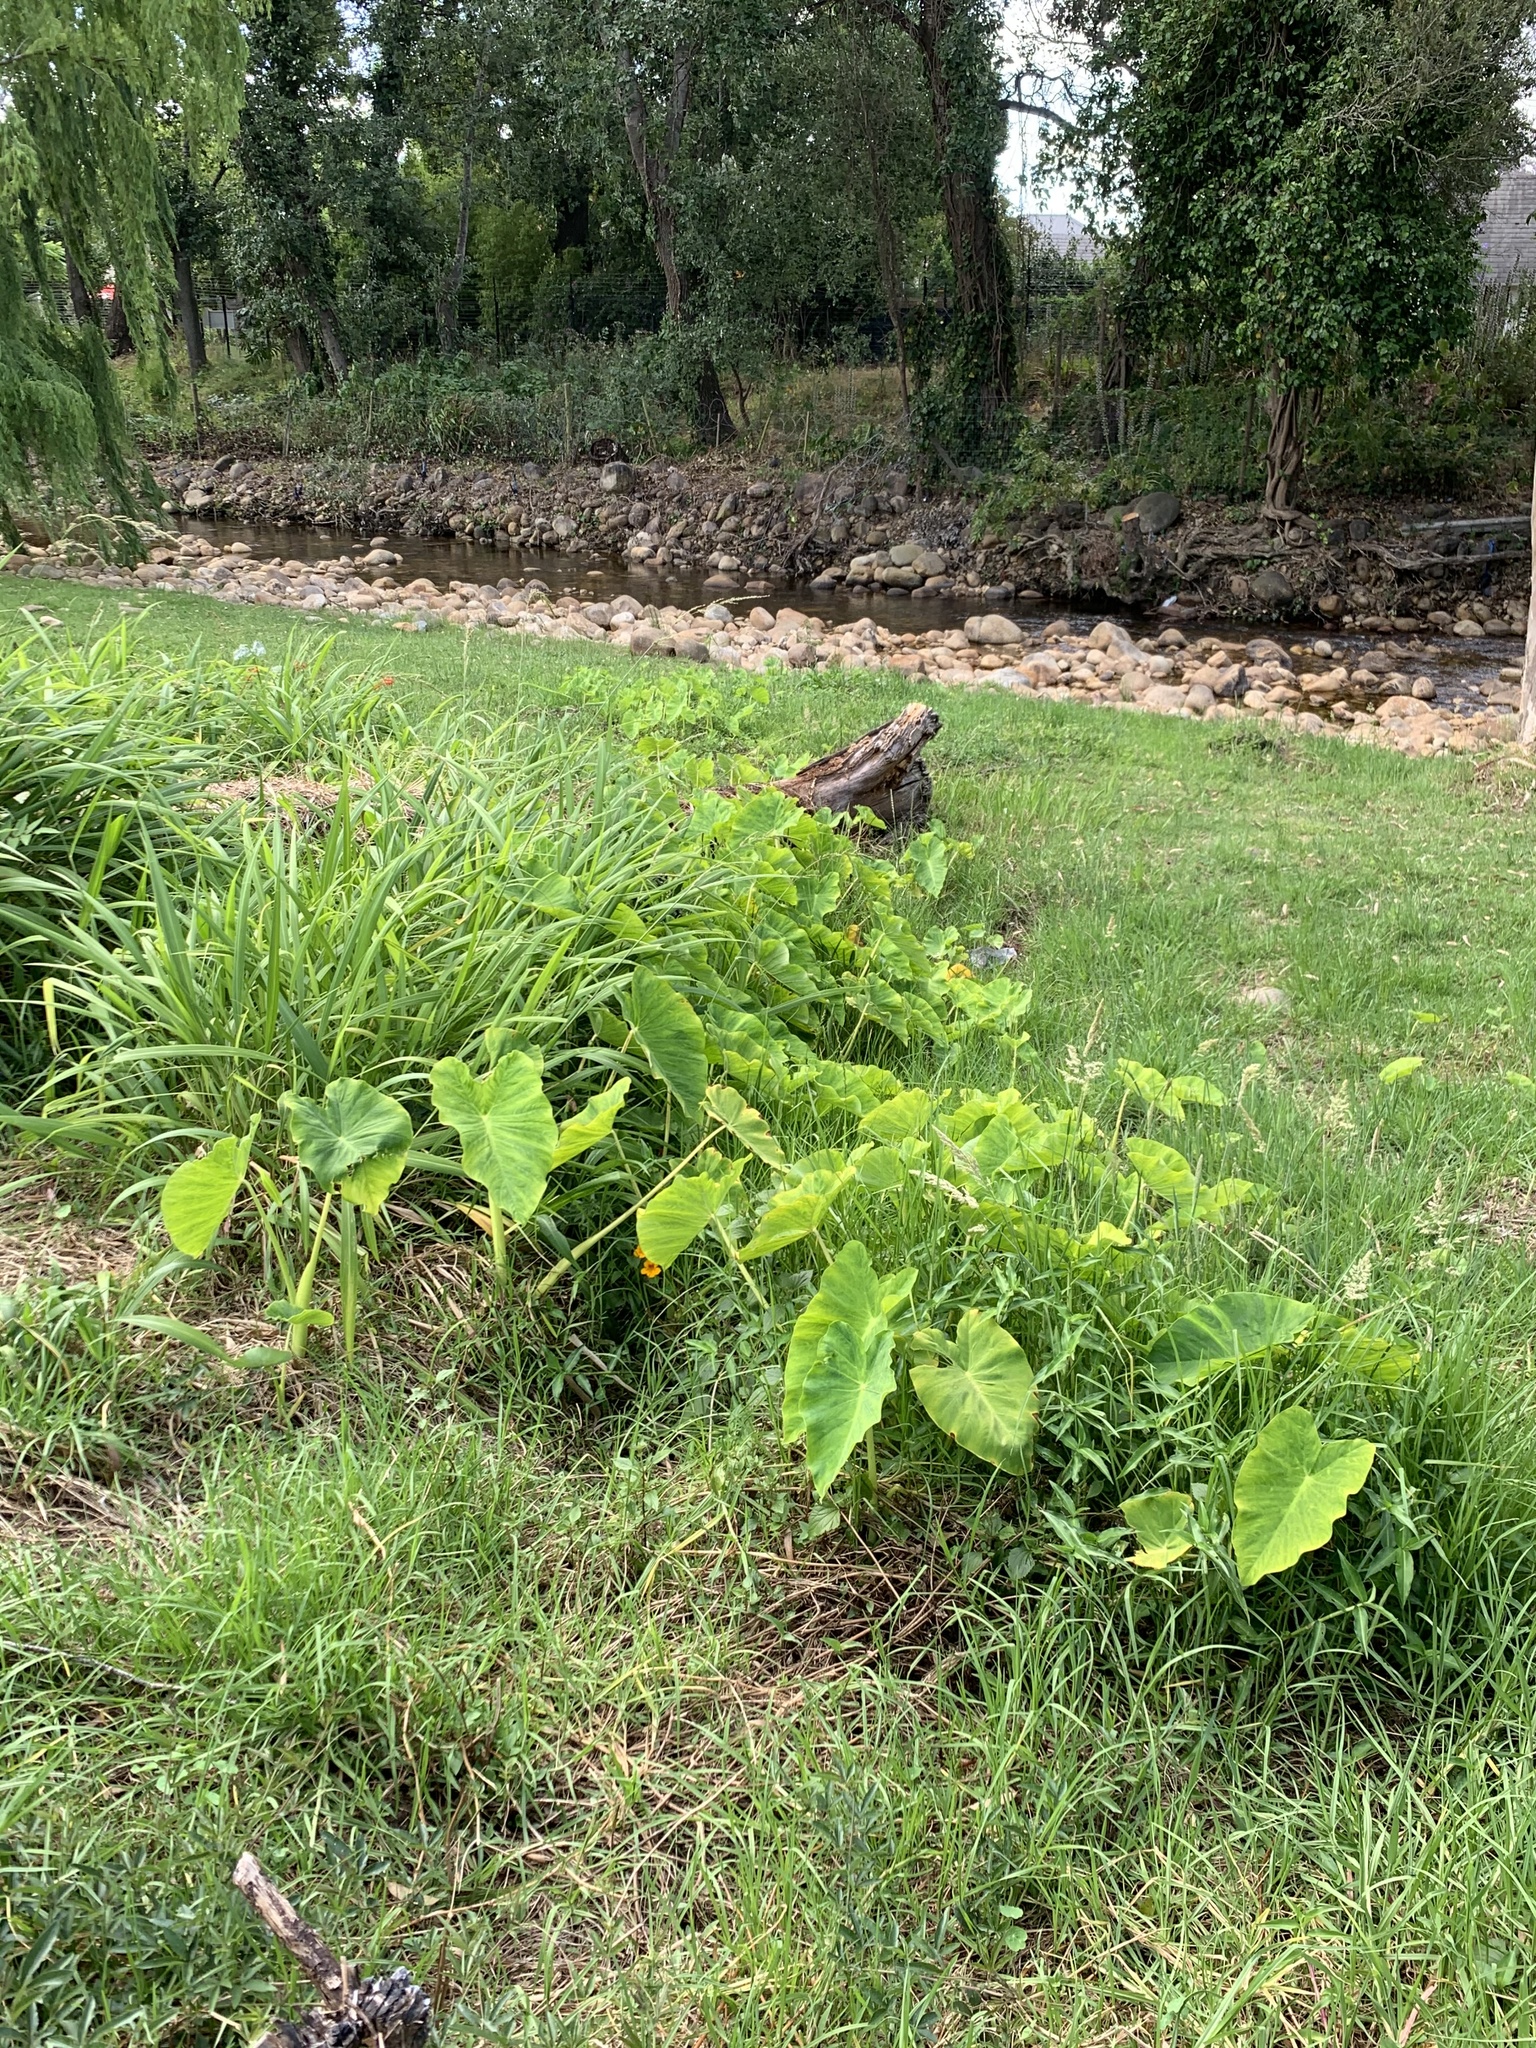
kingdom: Plantae
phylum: Tracheophyta
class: Liliopsida
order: Alismatales
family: Araceae
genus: Colocasia
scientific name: Colocasia esculenta
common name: Taro
